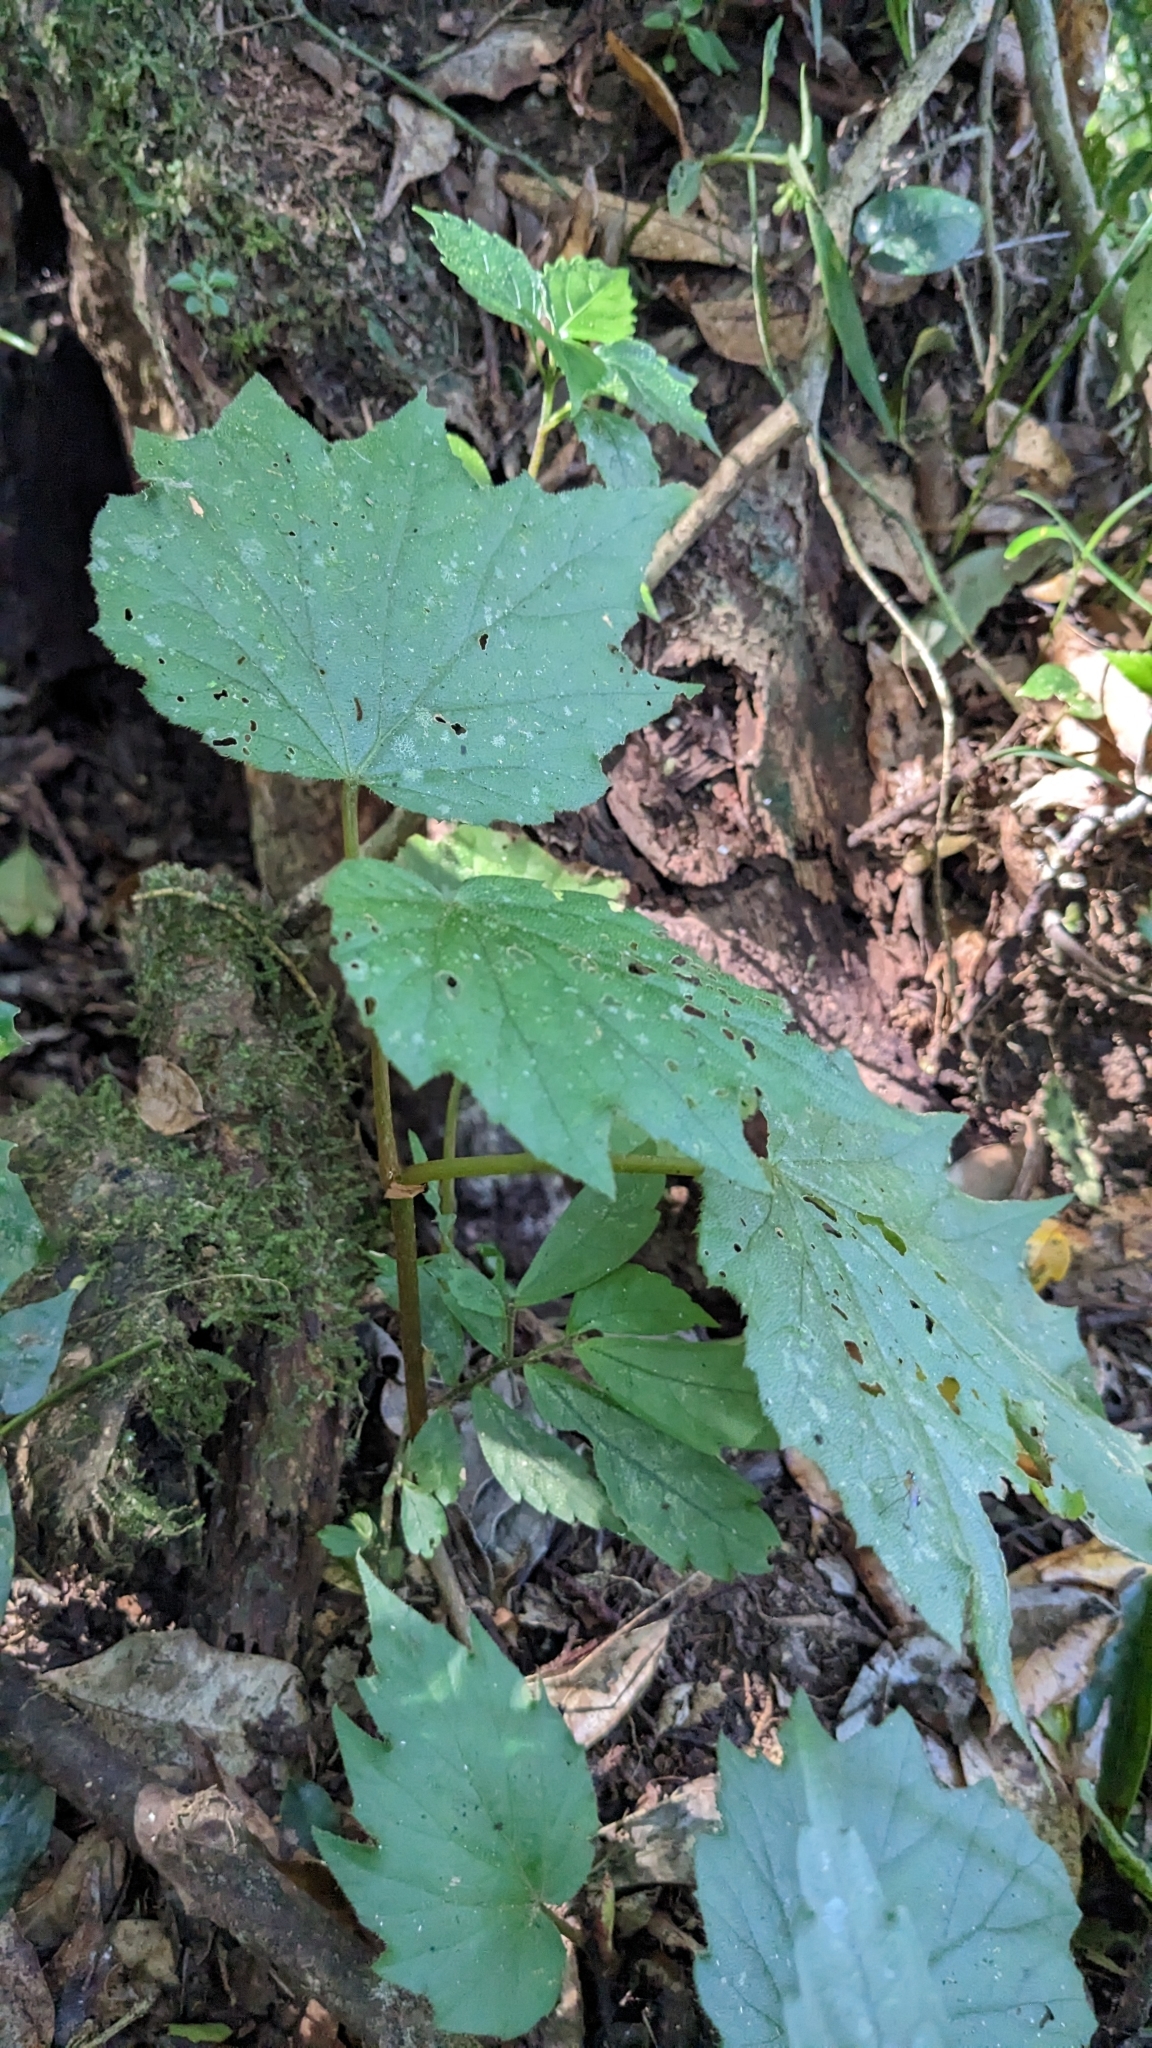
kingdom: Plantae
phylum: Tracheophyta
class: Magnoliopsida
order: Cucurbitales
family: Begoniaceae
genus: Begonia
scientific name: Begonia palmata
